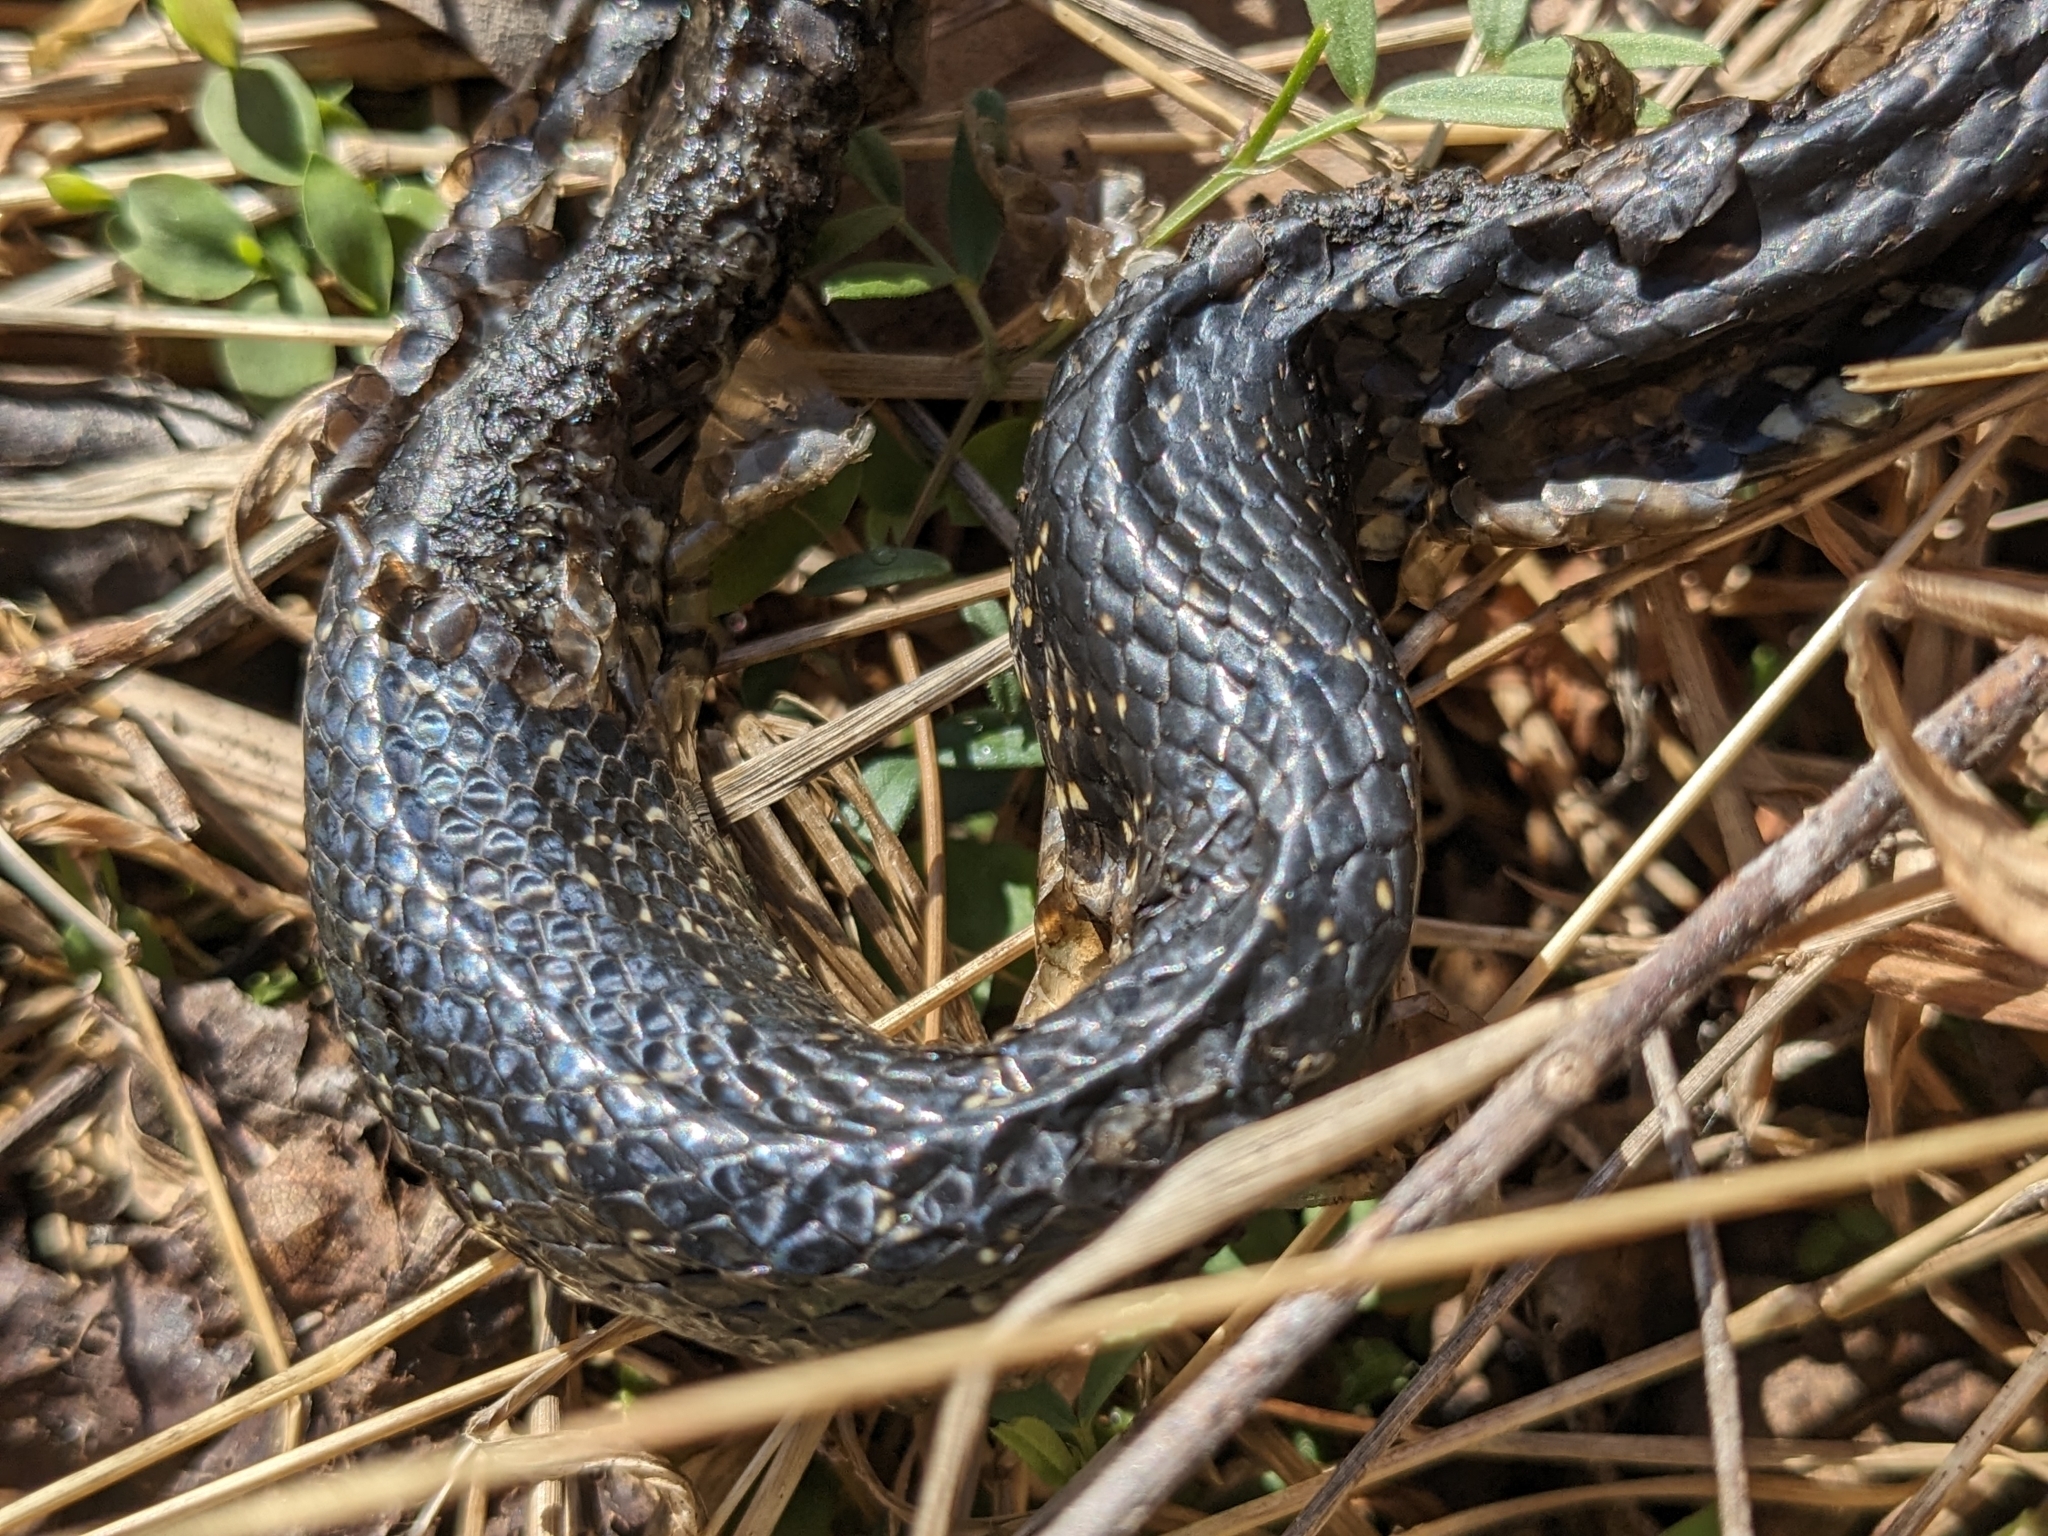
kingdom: Animalia
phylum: Chordata
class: Squamata
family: Colubridae
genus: Lampropeltis
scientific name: Lampropeltis nigra
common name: Black kingsnake
